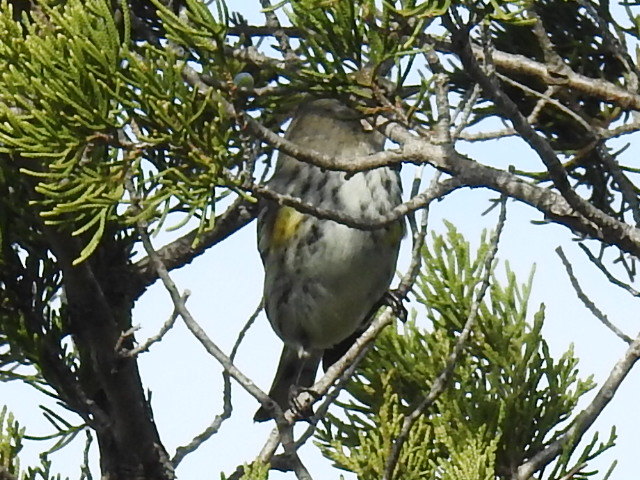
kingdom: Animalia
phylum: Chordata
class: Aves
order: Passeriformes
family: Parulidae
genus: Setophaga
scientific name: Setophaga coronata
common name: Myrtle warbler
